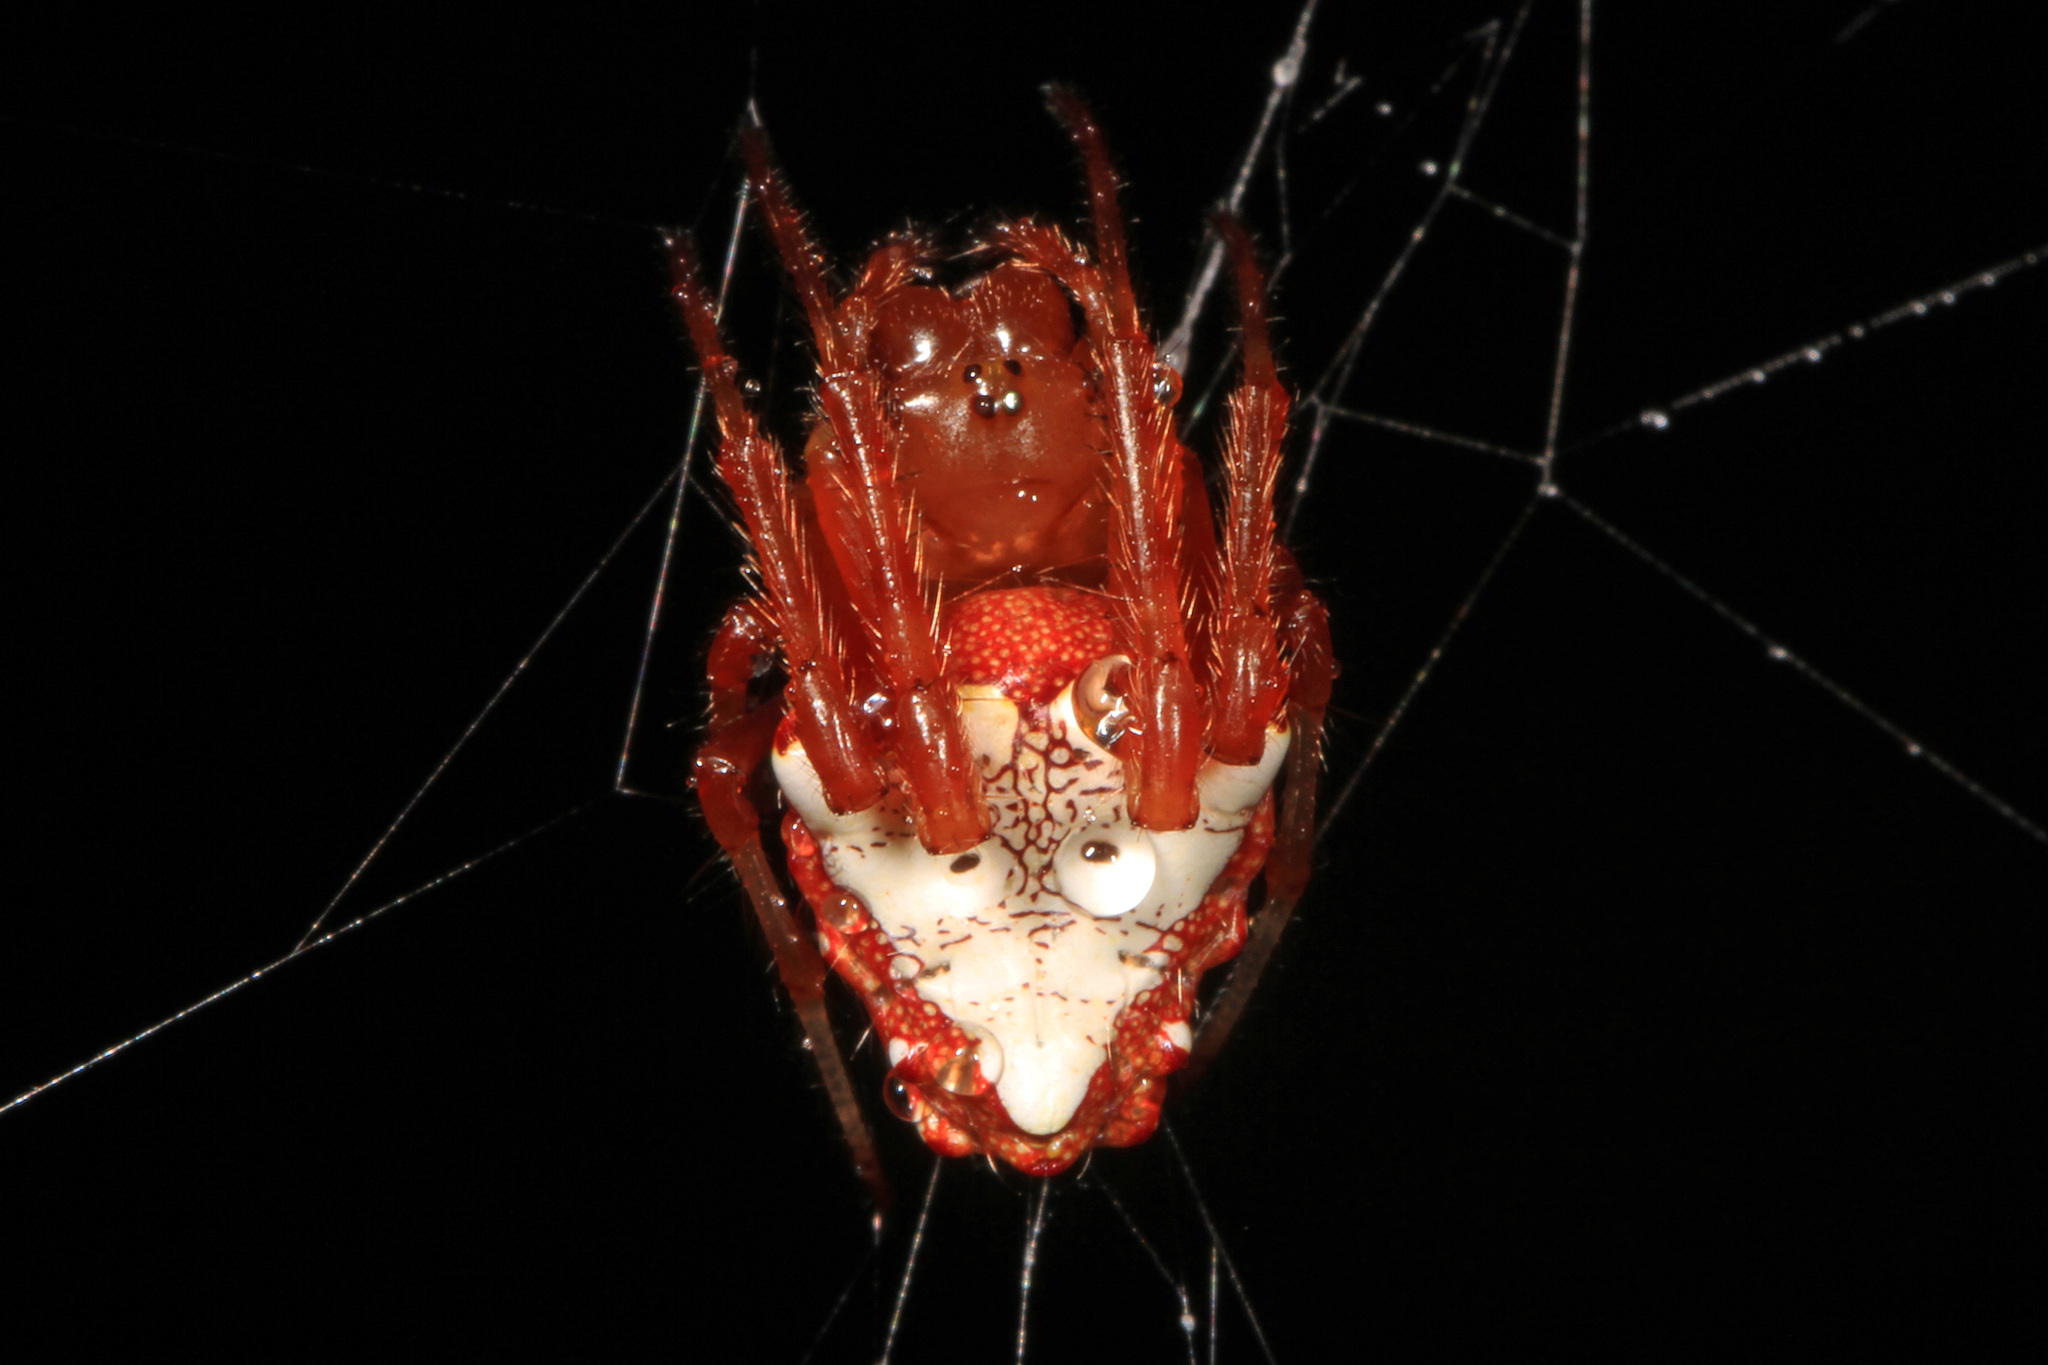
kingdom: Animalia
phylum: Arthropoda
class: Arachnida
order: Araneae
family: Araneidae
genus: Verrucosa
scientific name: Verrucosa arenata
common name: Orb weavers
